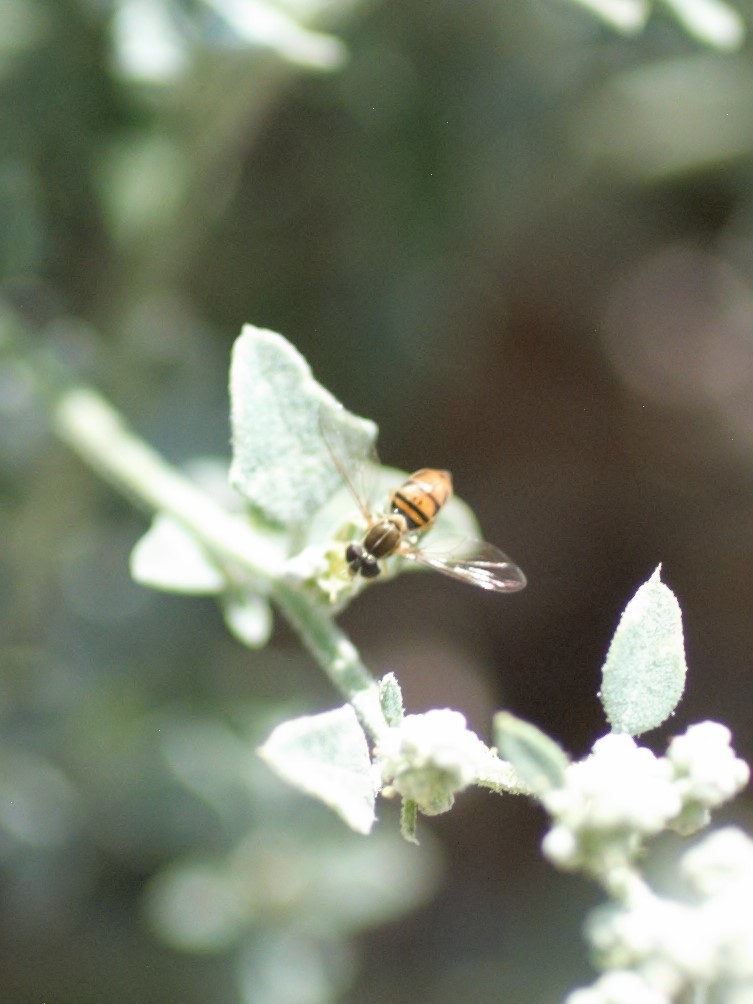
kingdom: Animalia
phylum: Arthropoda
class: Insecta
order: Diptera
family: Syrphidae
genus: Toxomerus
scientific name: Toxomerus marginatus
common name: Syrphid fly
